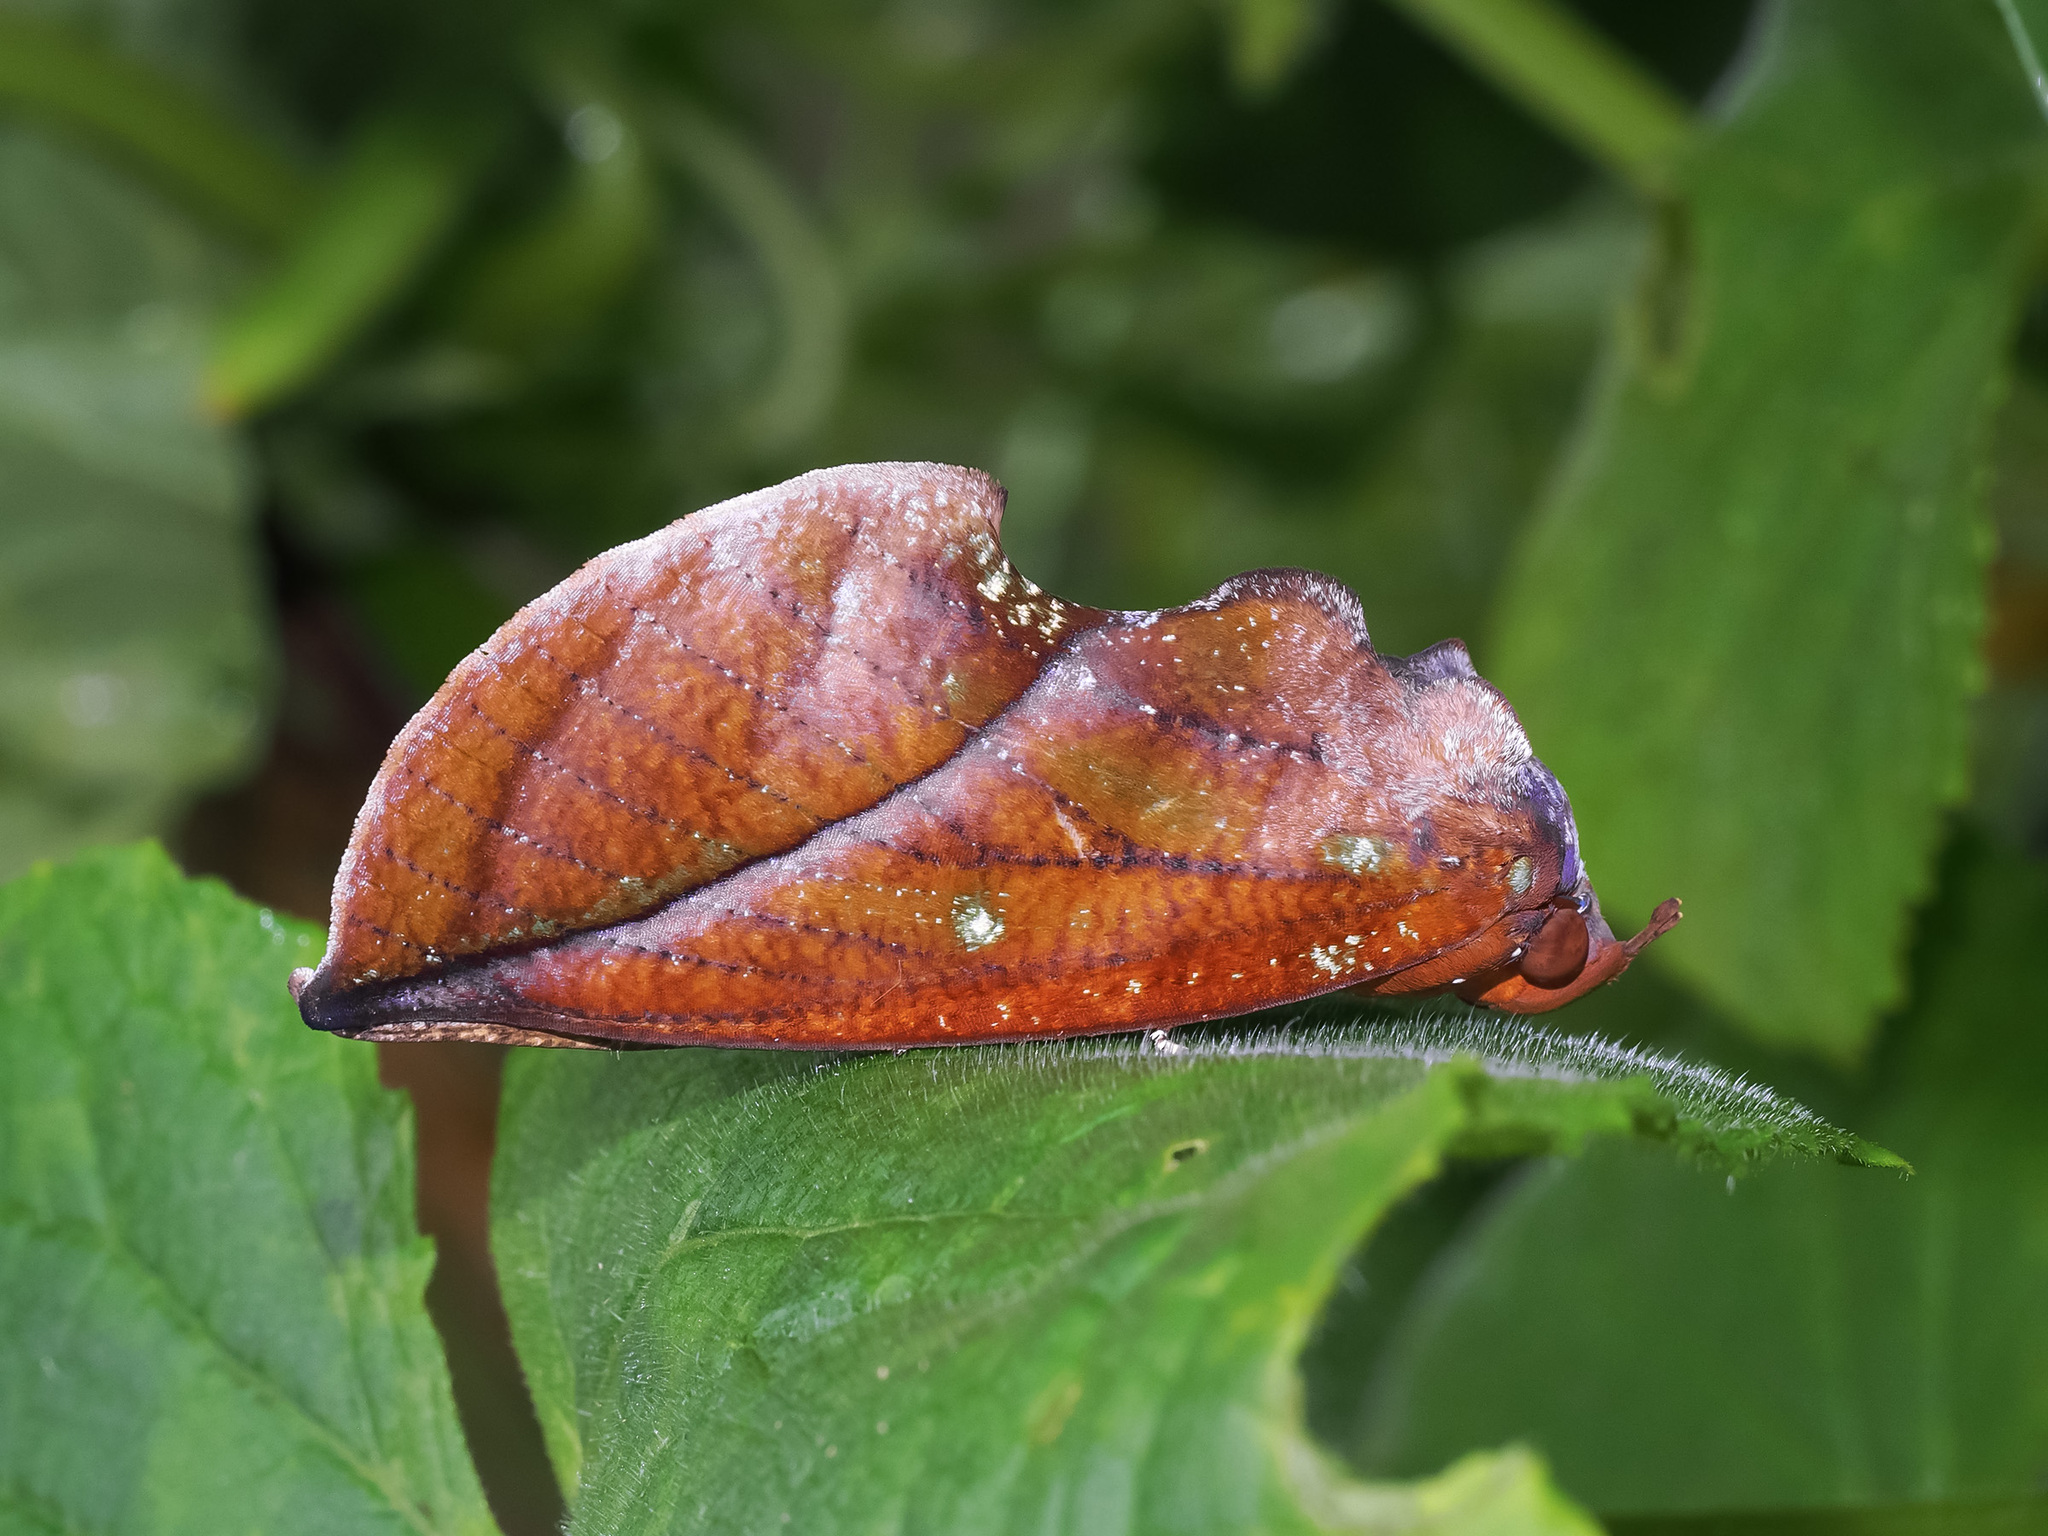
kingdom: Animalia
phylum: Arthropoda
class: Insecta
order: Lepidoptera
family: Erebidae
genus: Eudocima
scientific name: Eudocima aurantia
